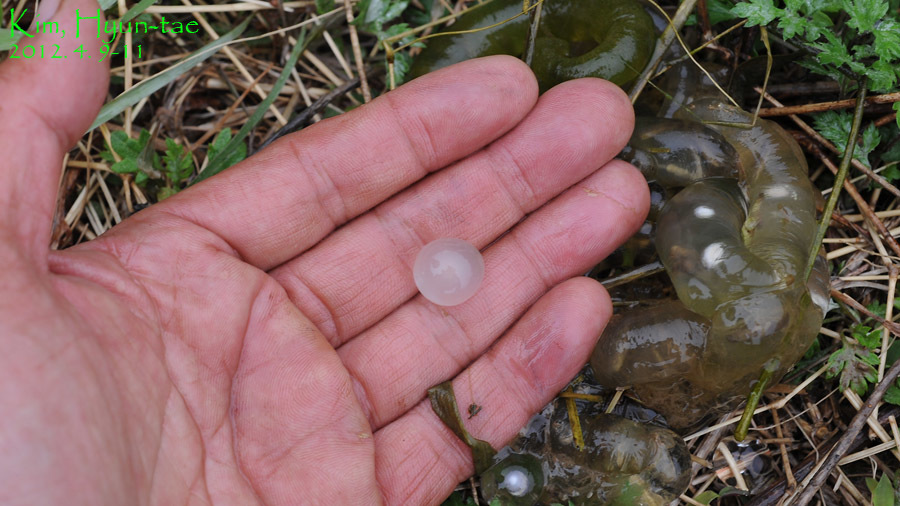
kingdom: Animalia
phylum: Chordata
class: Amphibia
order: Caudata
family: Hynobiidae
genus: Hynobius
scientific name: Hynobius notialis
